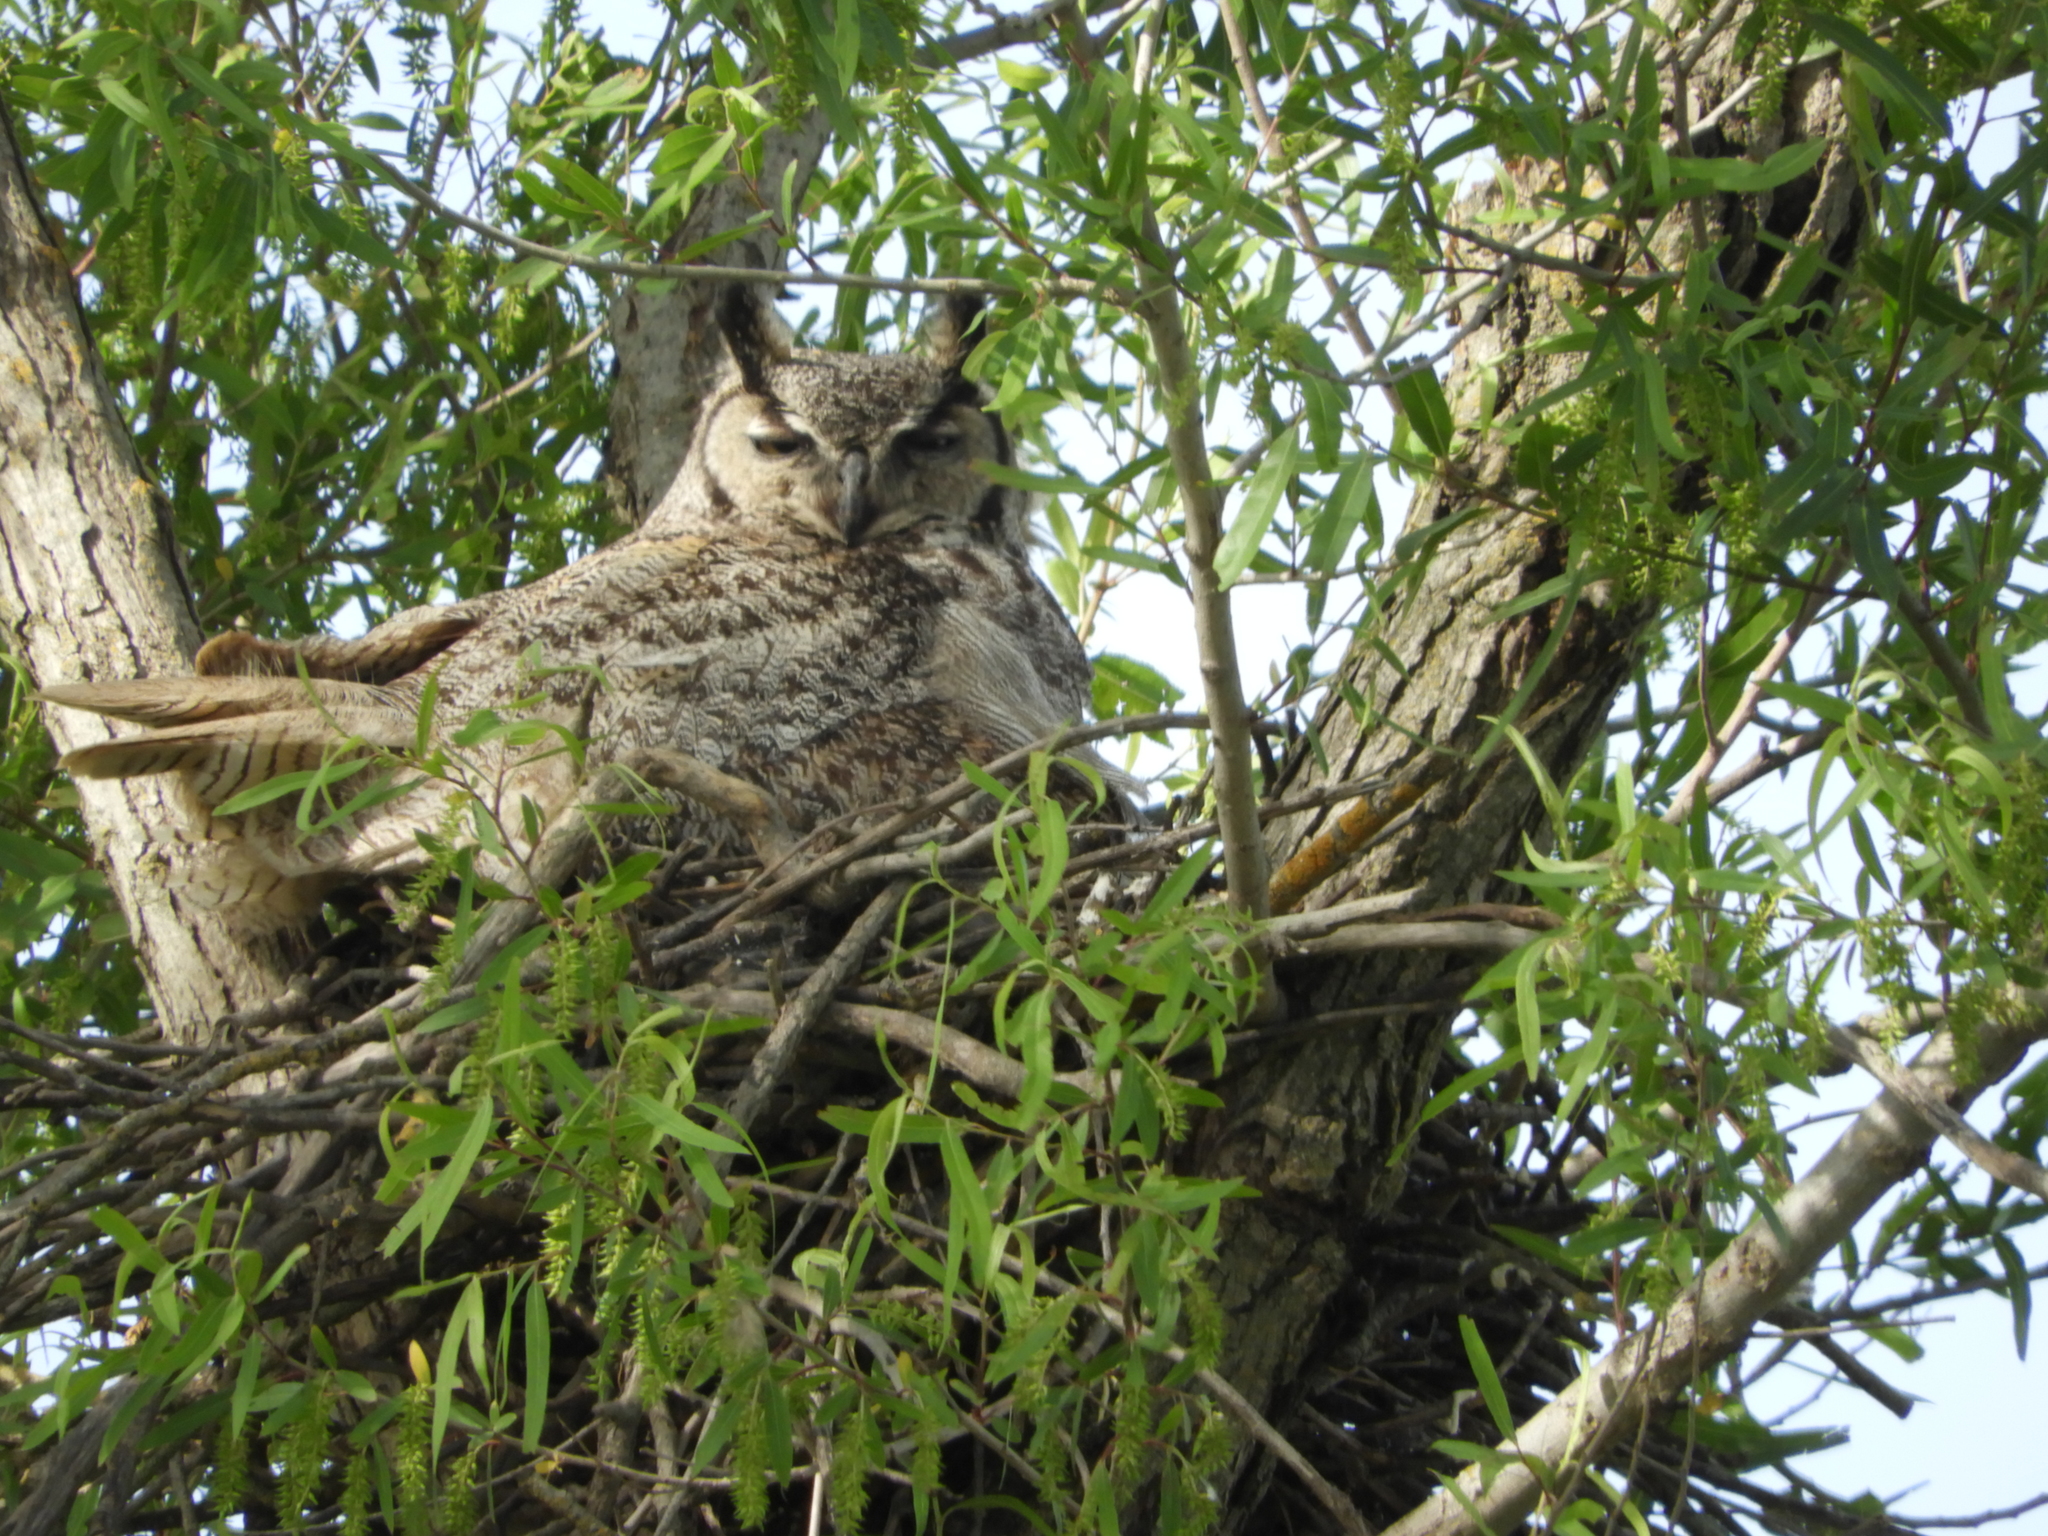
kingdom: Animalia
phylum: Chordata
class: Aves
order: Strigiformes
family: Strigidae
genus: Bubo
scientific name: Bubo virginianus
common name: Great horned owl
